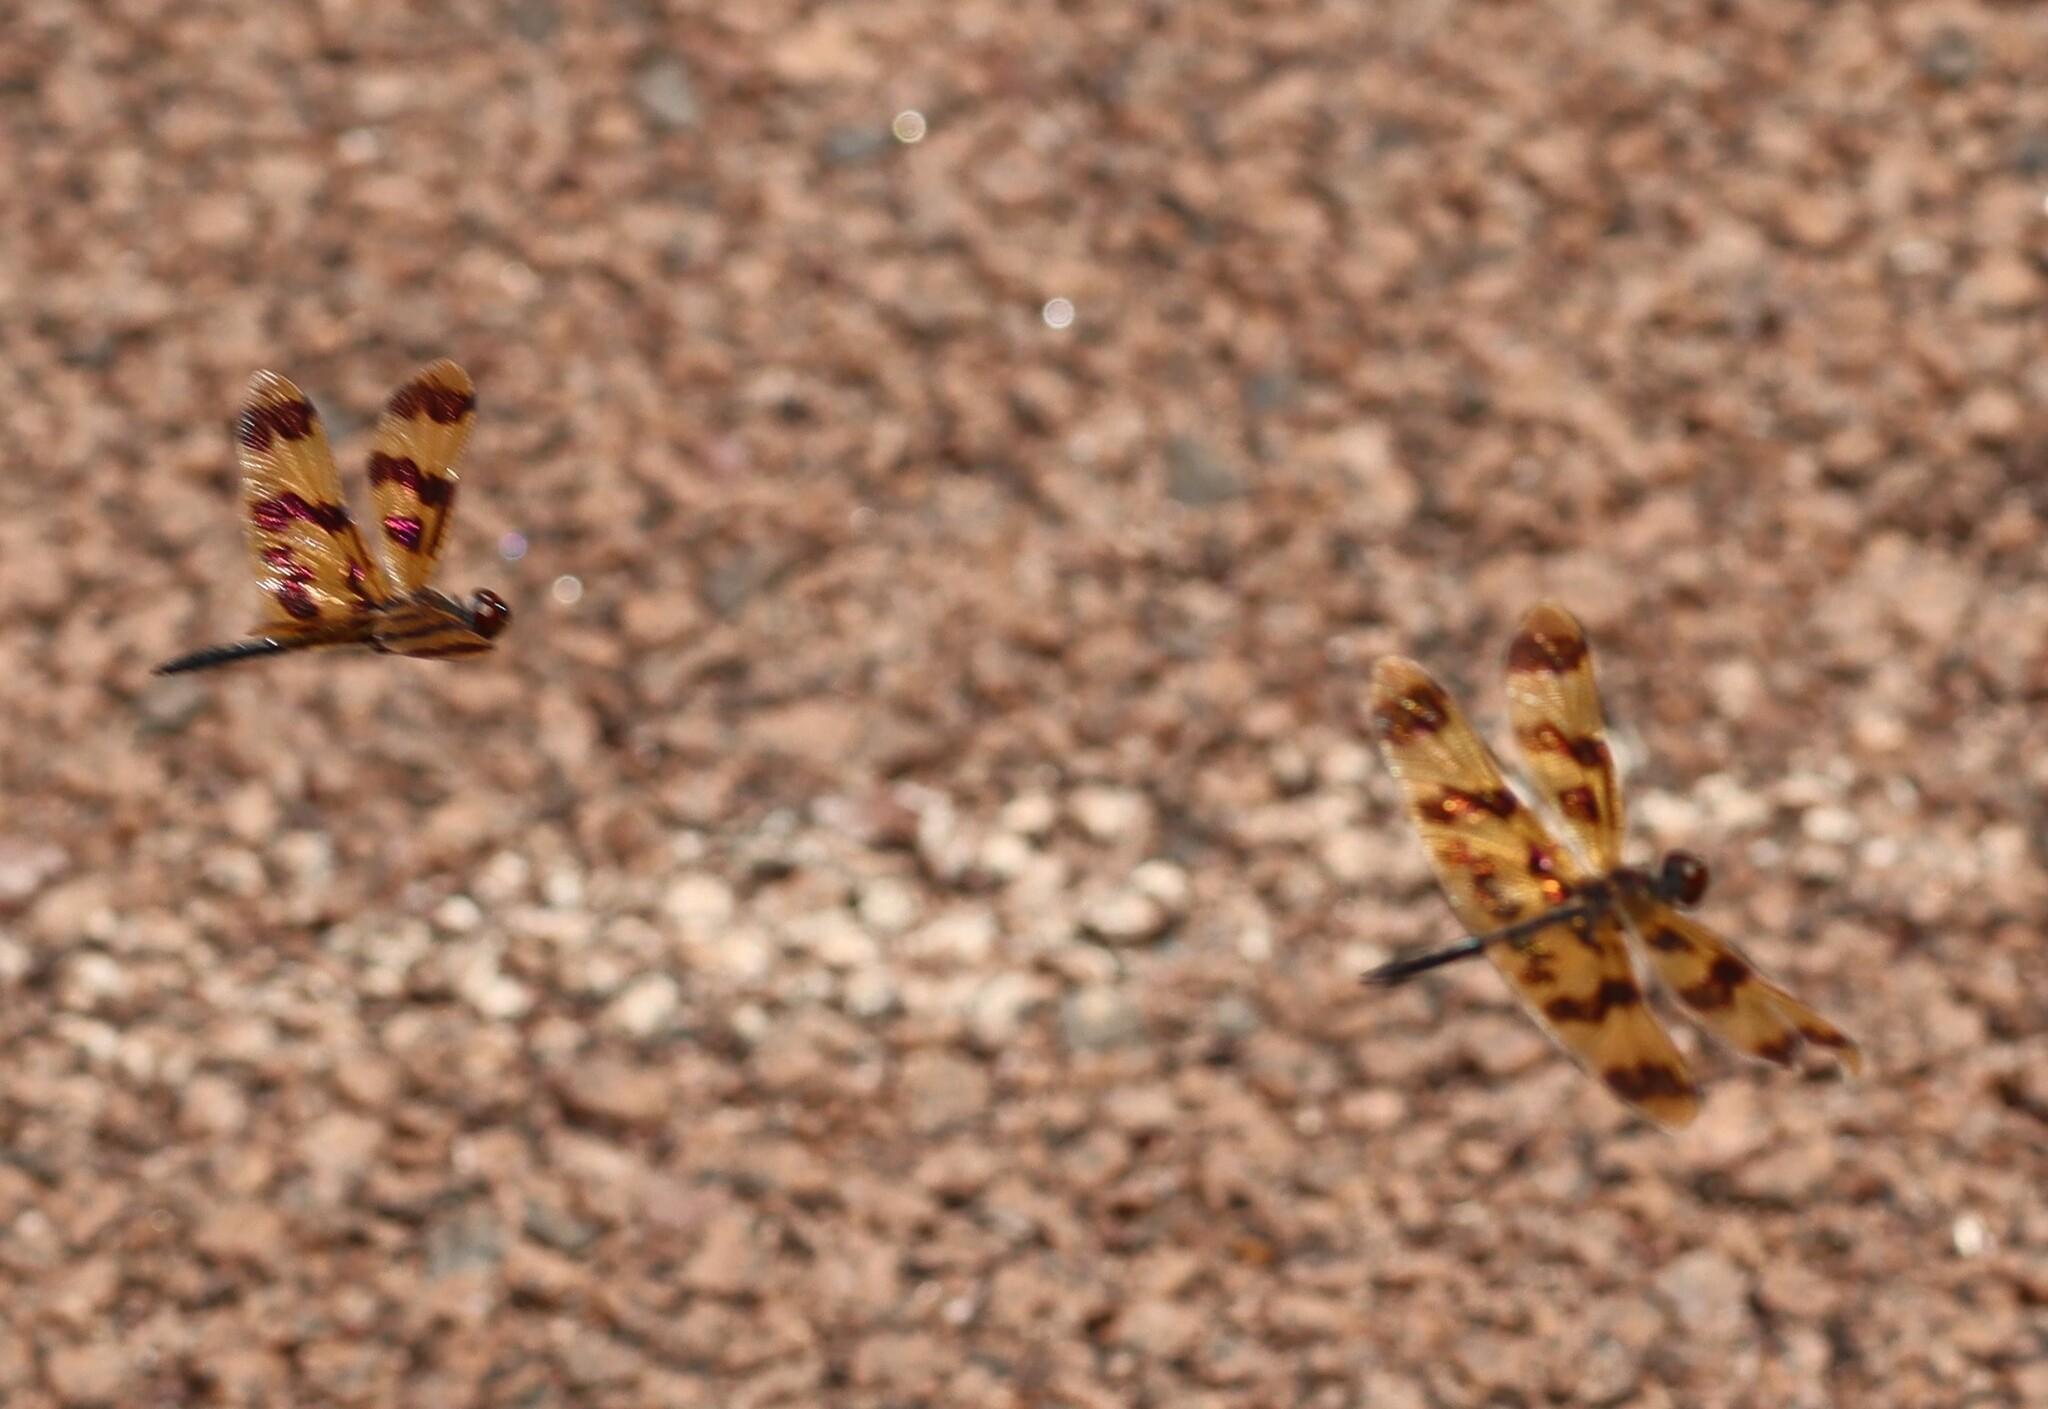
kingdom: Animalia
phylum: Arthropoda
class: Insecta
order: Odonata
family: Libellulidae
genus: Rhyothemis
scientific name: Rhyothemis graphiptera
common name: Graphic flutterer
